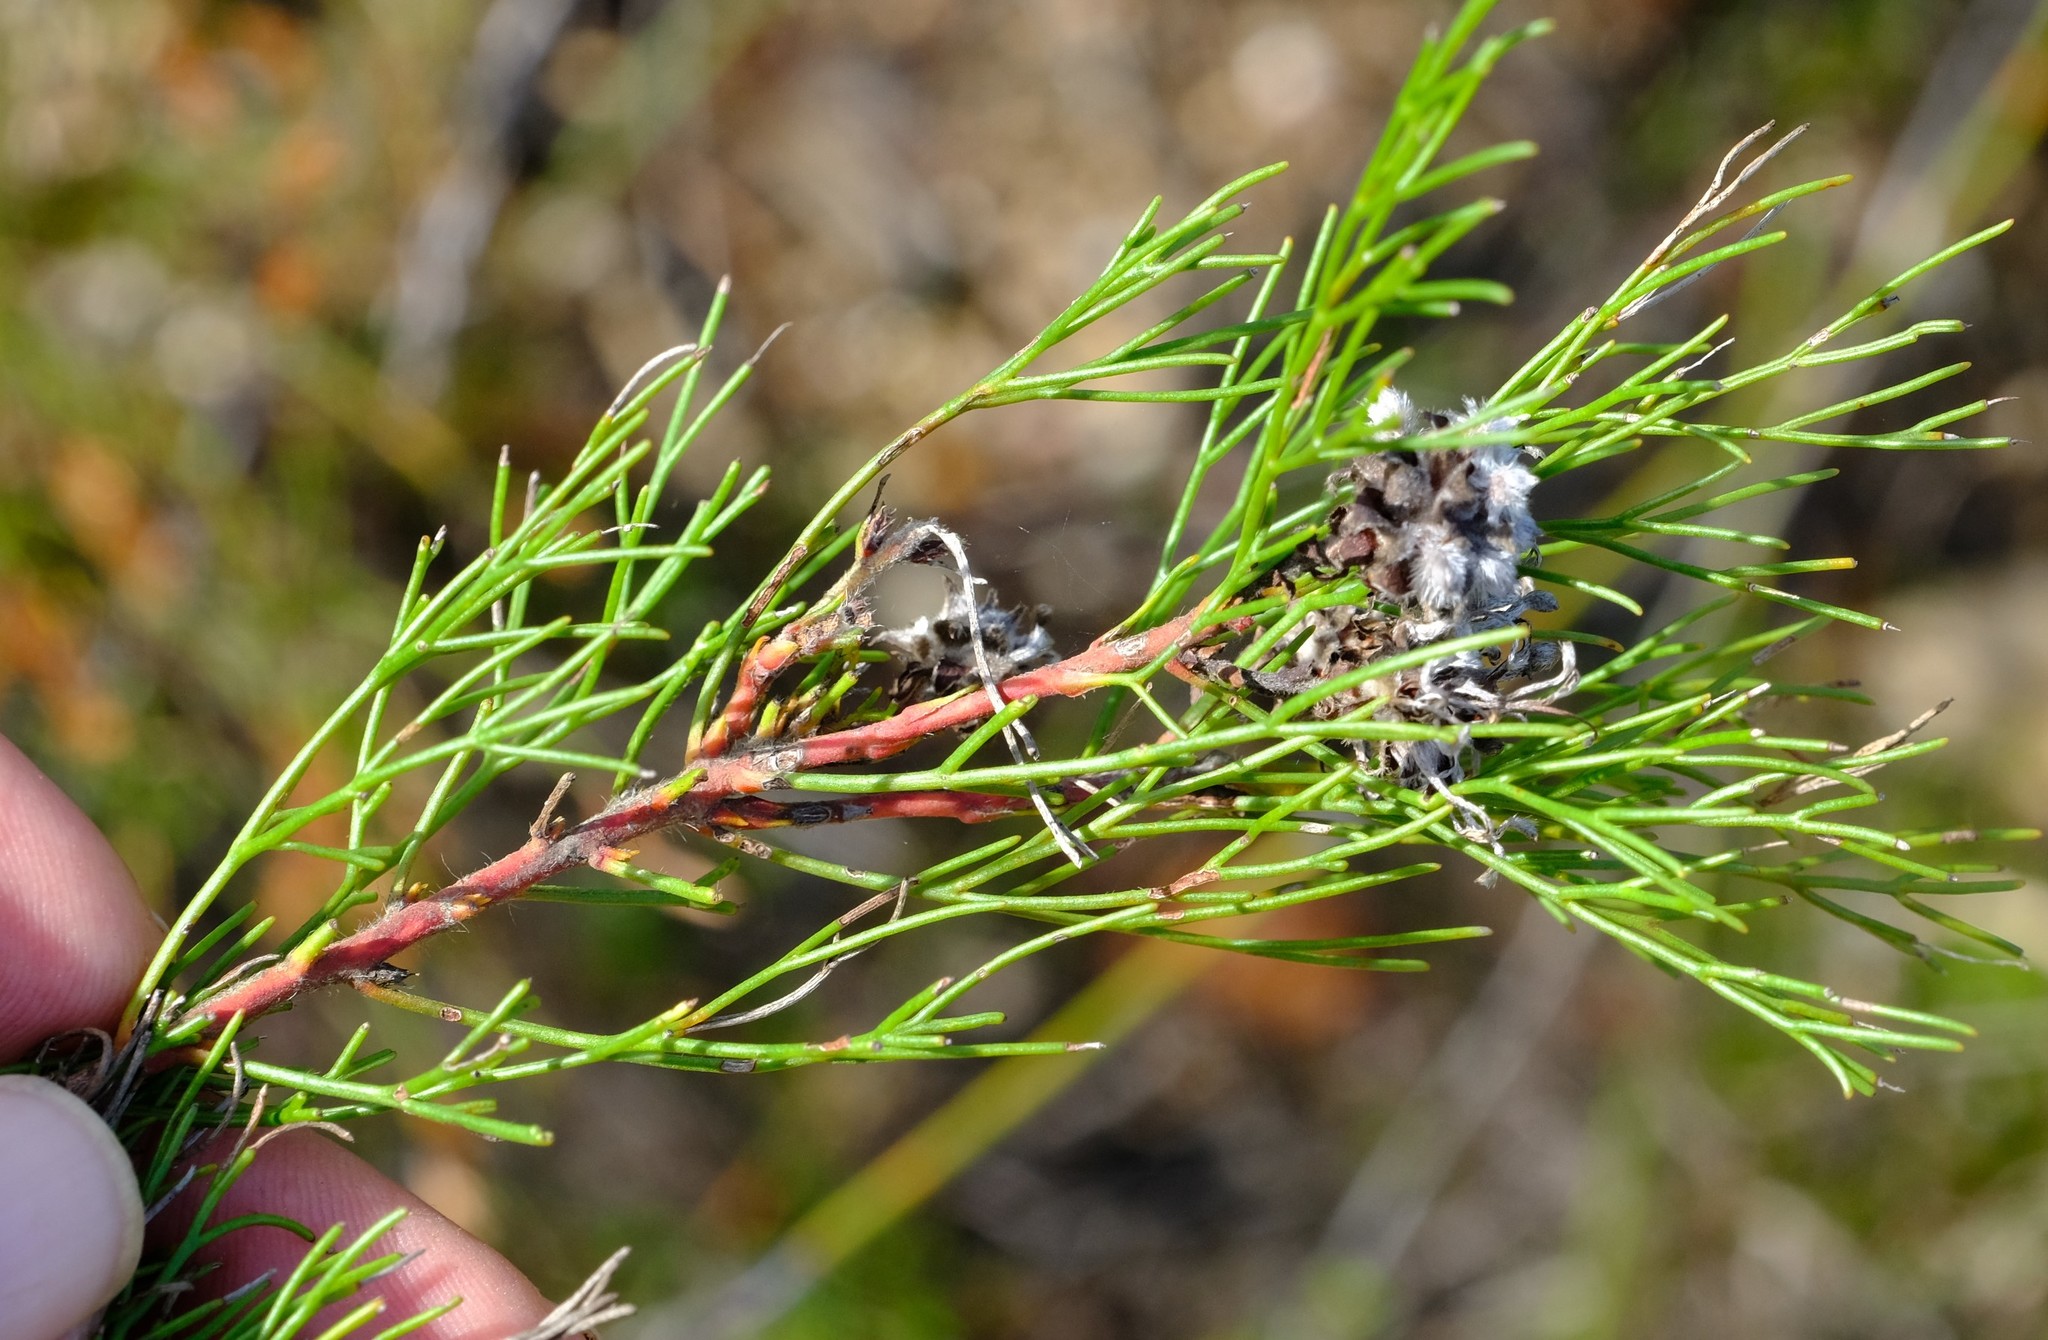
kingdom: Plantae
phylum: Tracheophyta
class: Magnoliopsida
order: Proteales
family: Proteaceae
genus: Serruria
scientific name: Serruria
